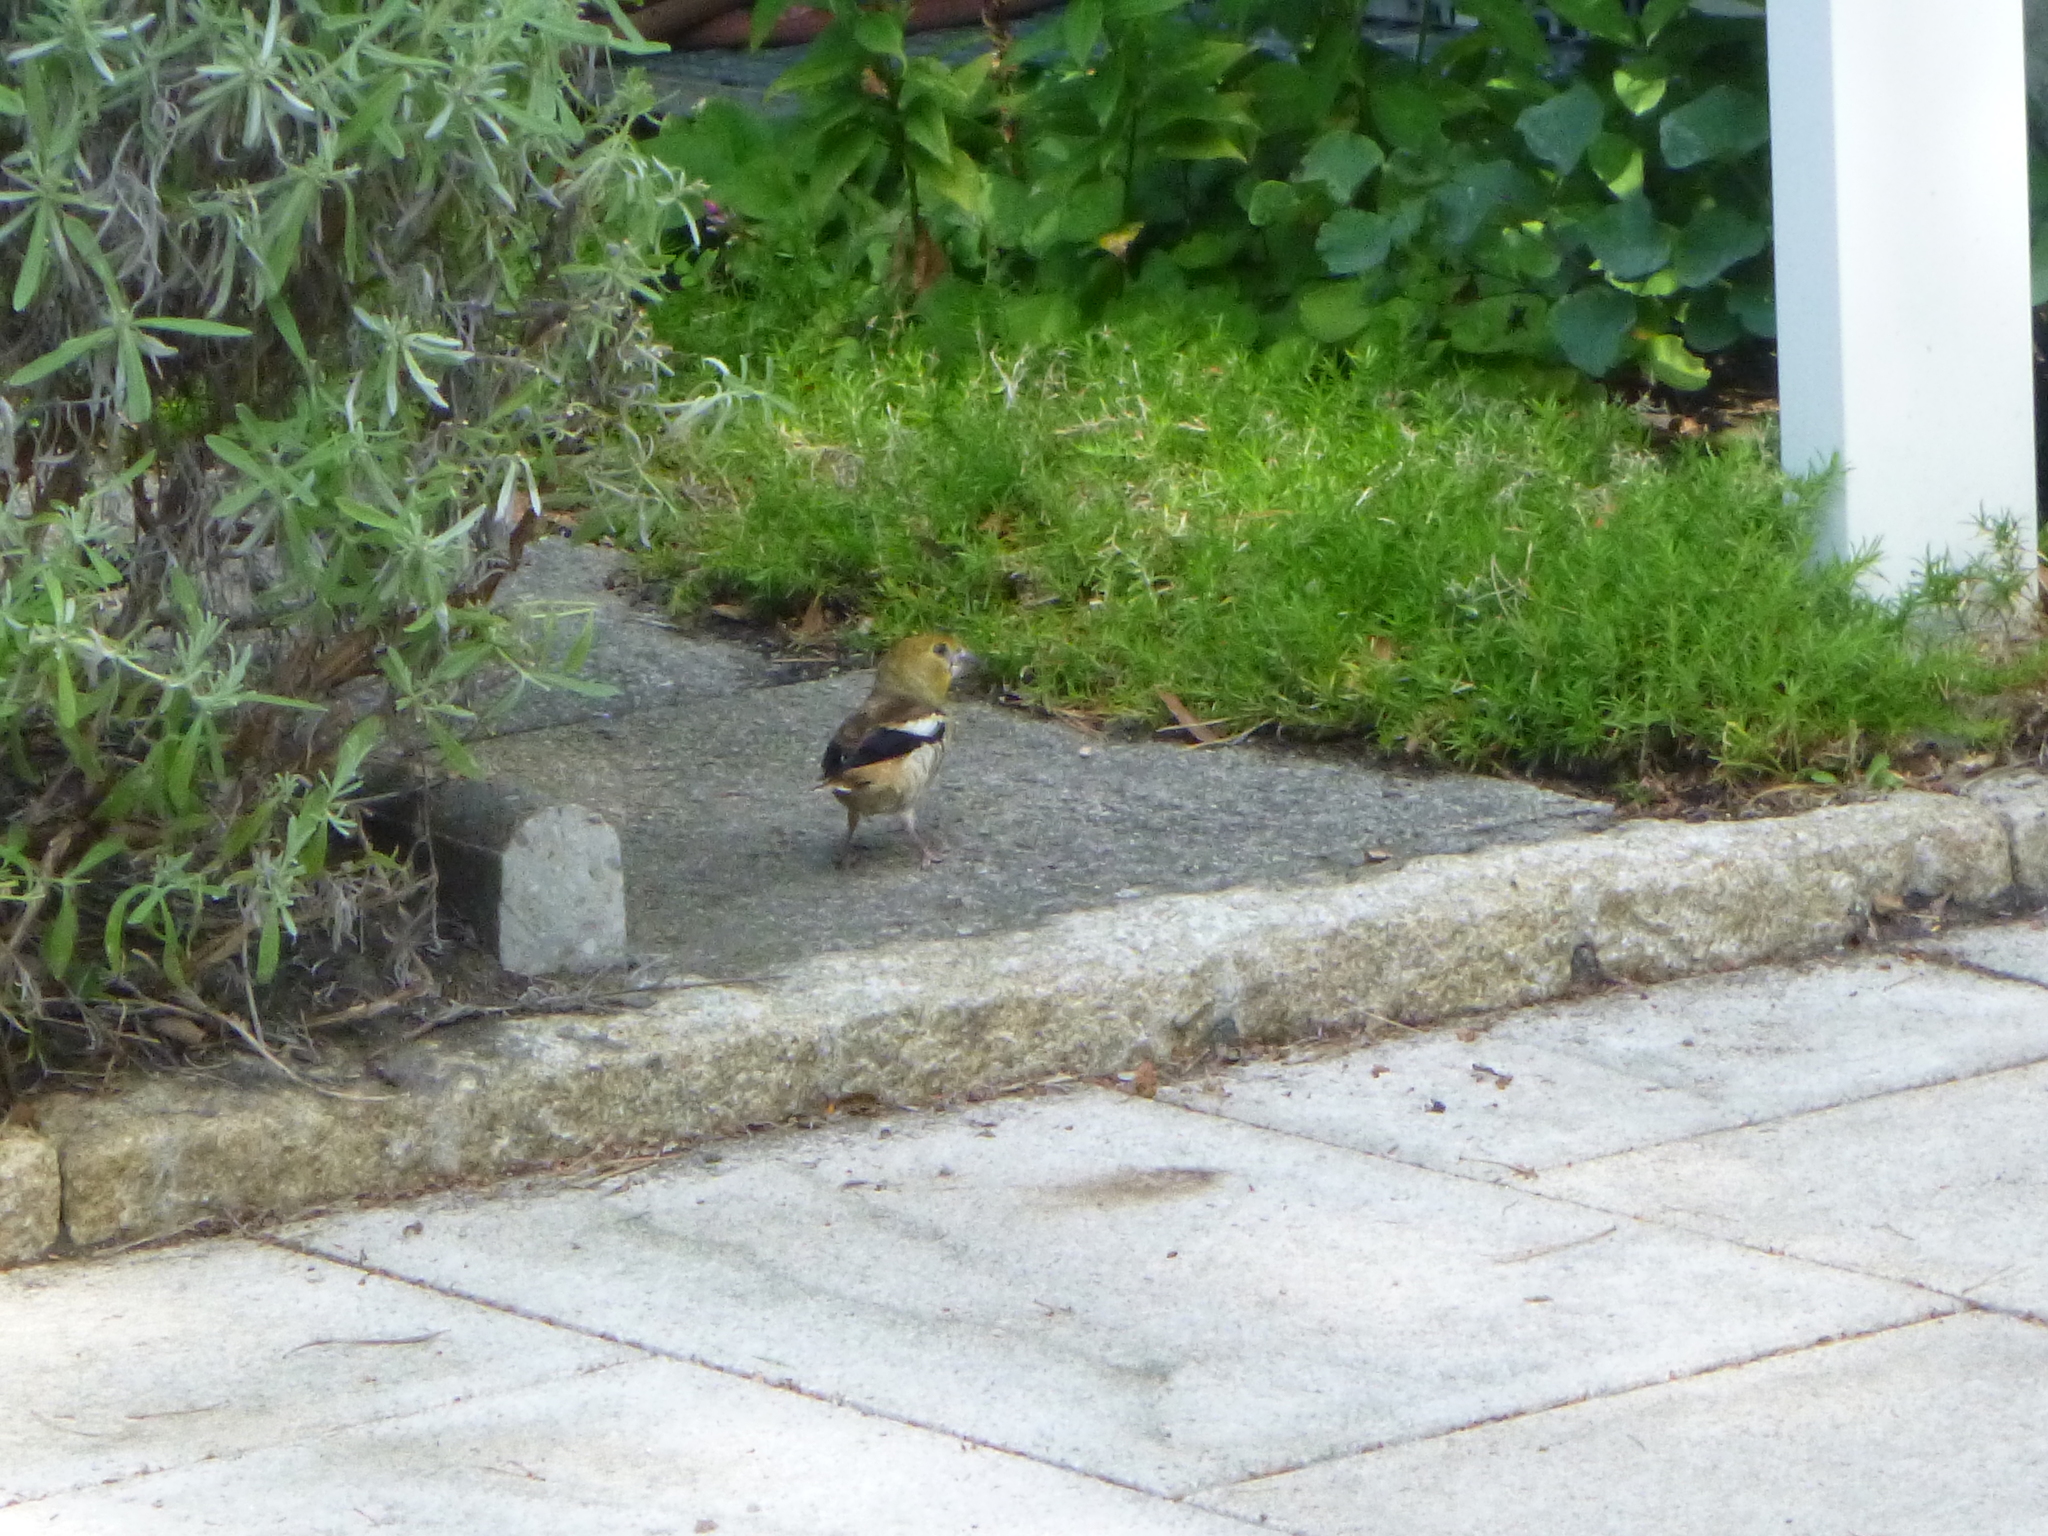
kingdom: Animalia
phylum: Chordata
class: Aves
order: Passeriformes
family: Fringillidae
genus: Coccothraustes
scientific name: Coccothraustes coccothraustes
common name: Hawfinch
